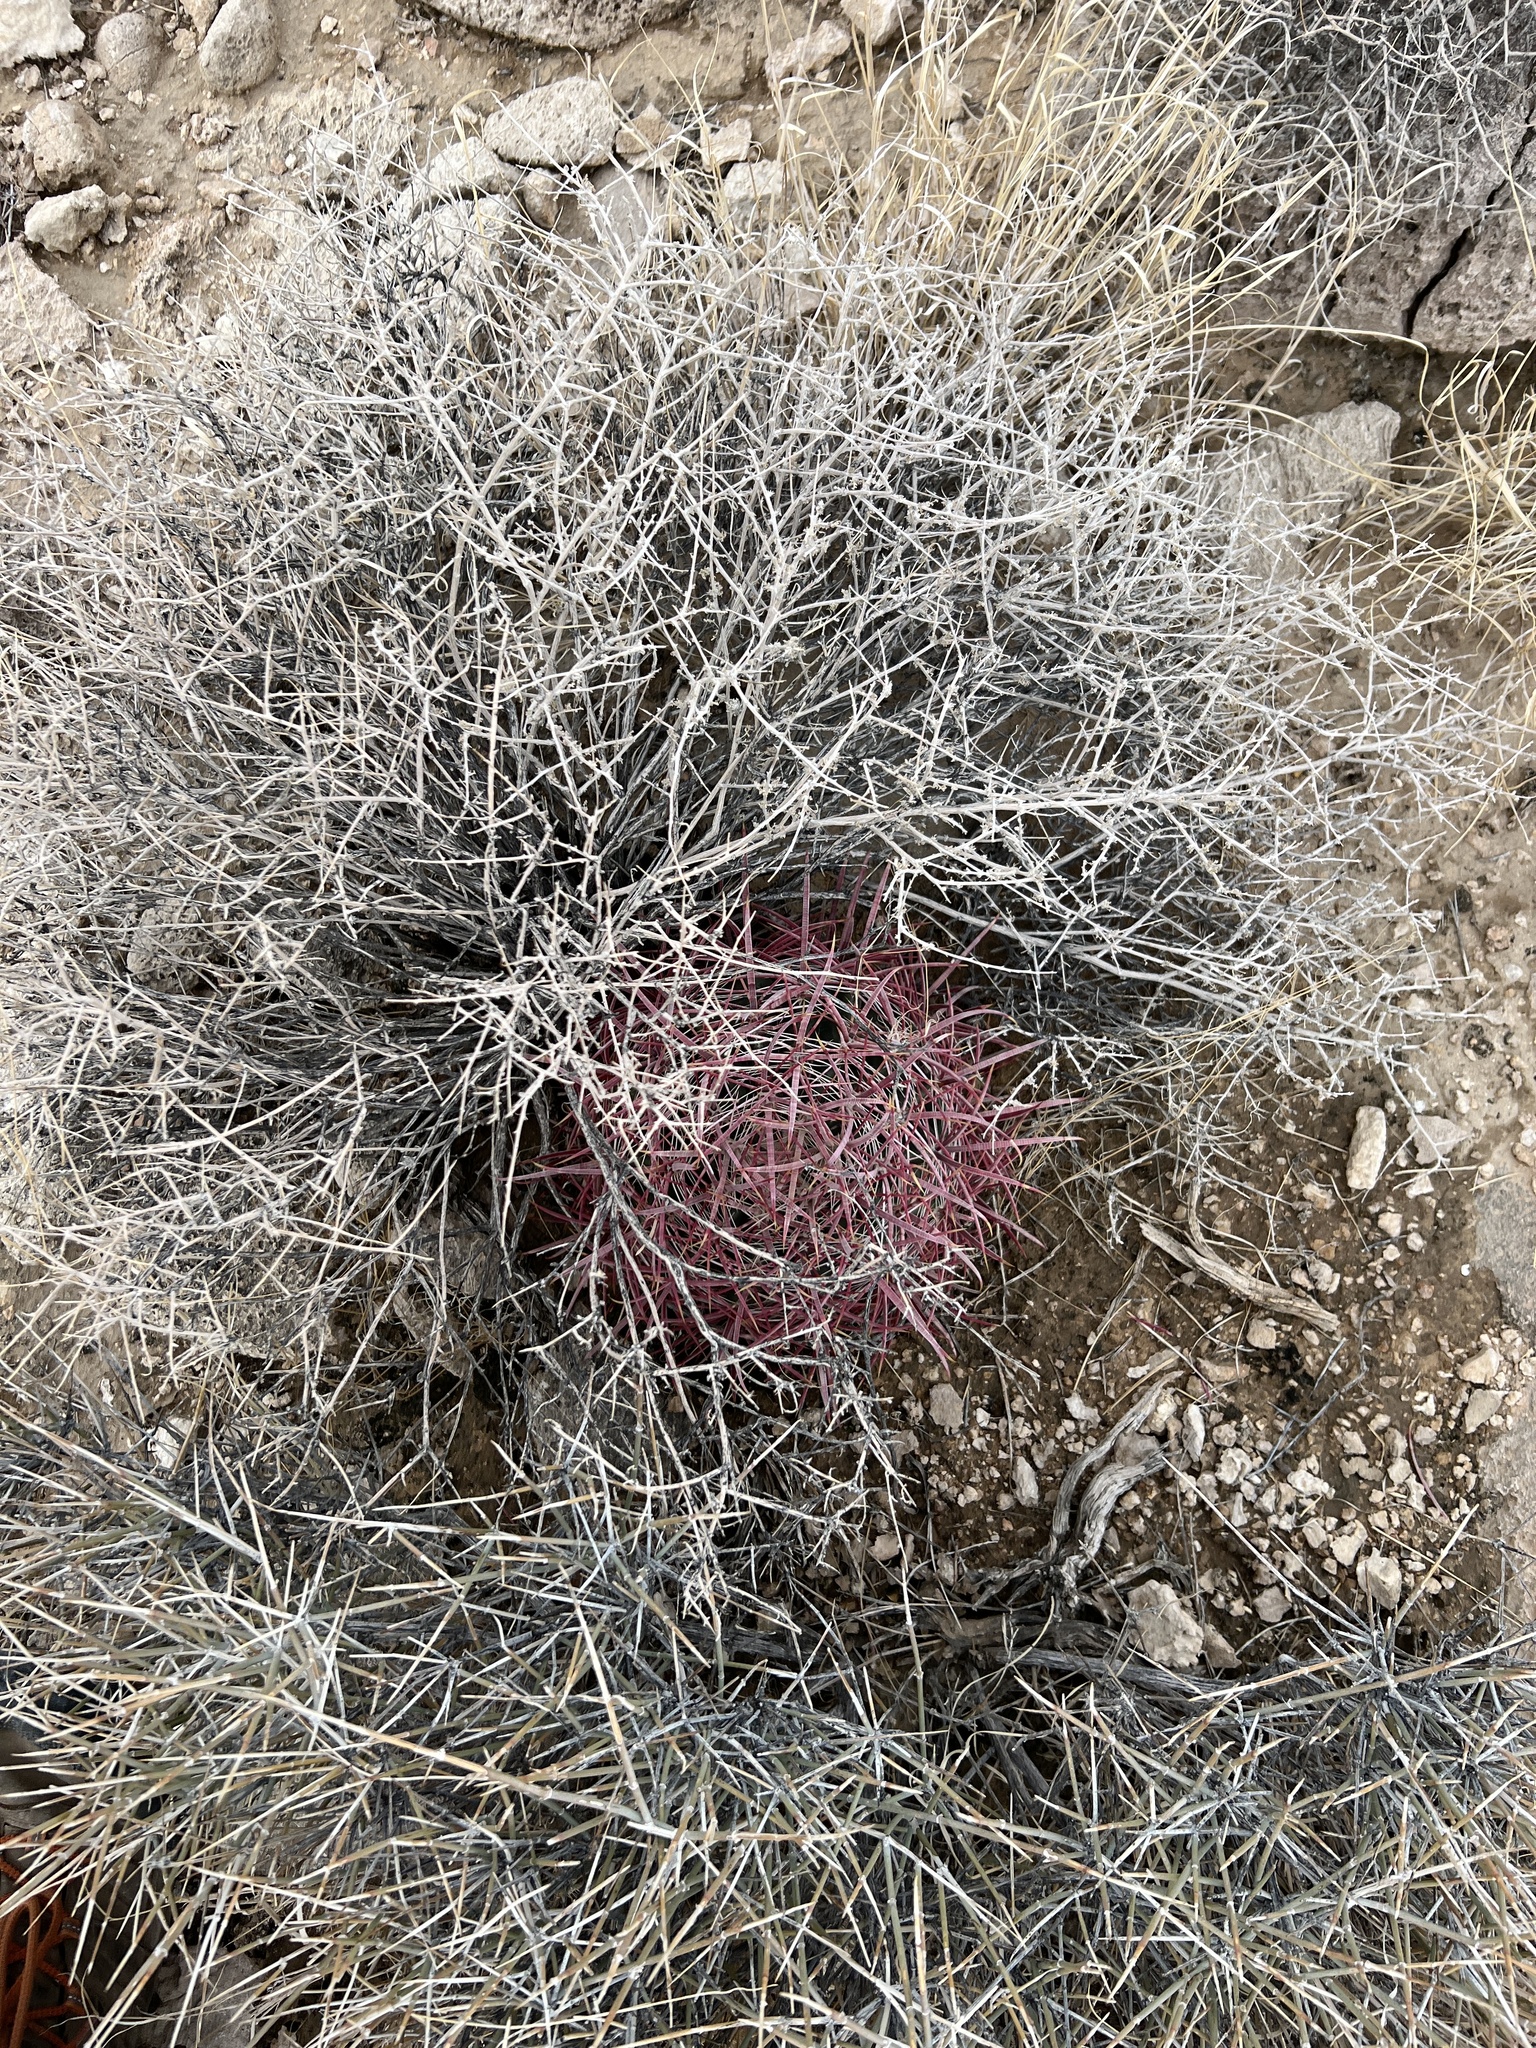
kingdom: Plantae
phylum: Tracheophyta
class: Magnoliopsida
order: Caryophyllales
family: Cactaceae
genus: Ferocactus
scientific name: Ferocactus cylindraceus
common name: California barrel cactus
